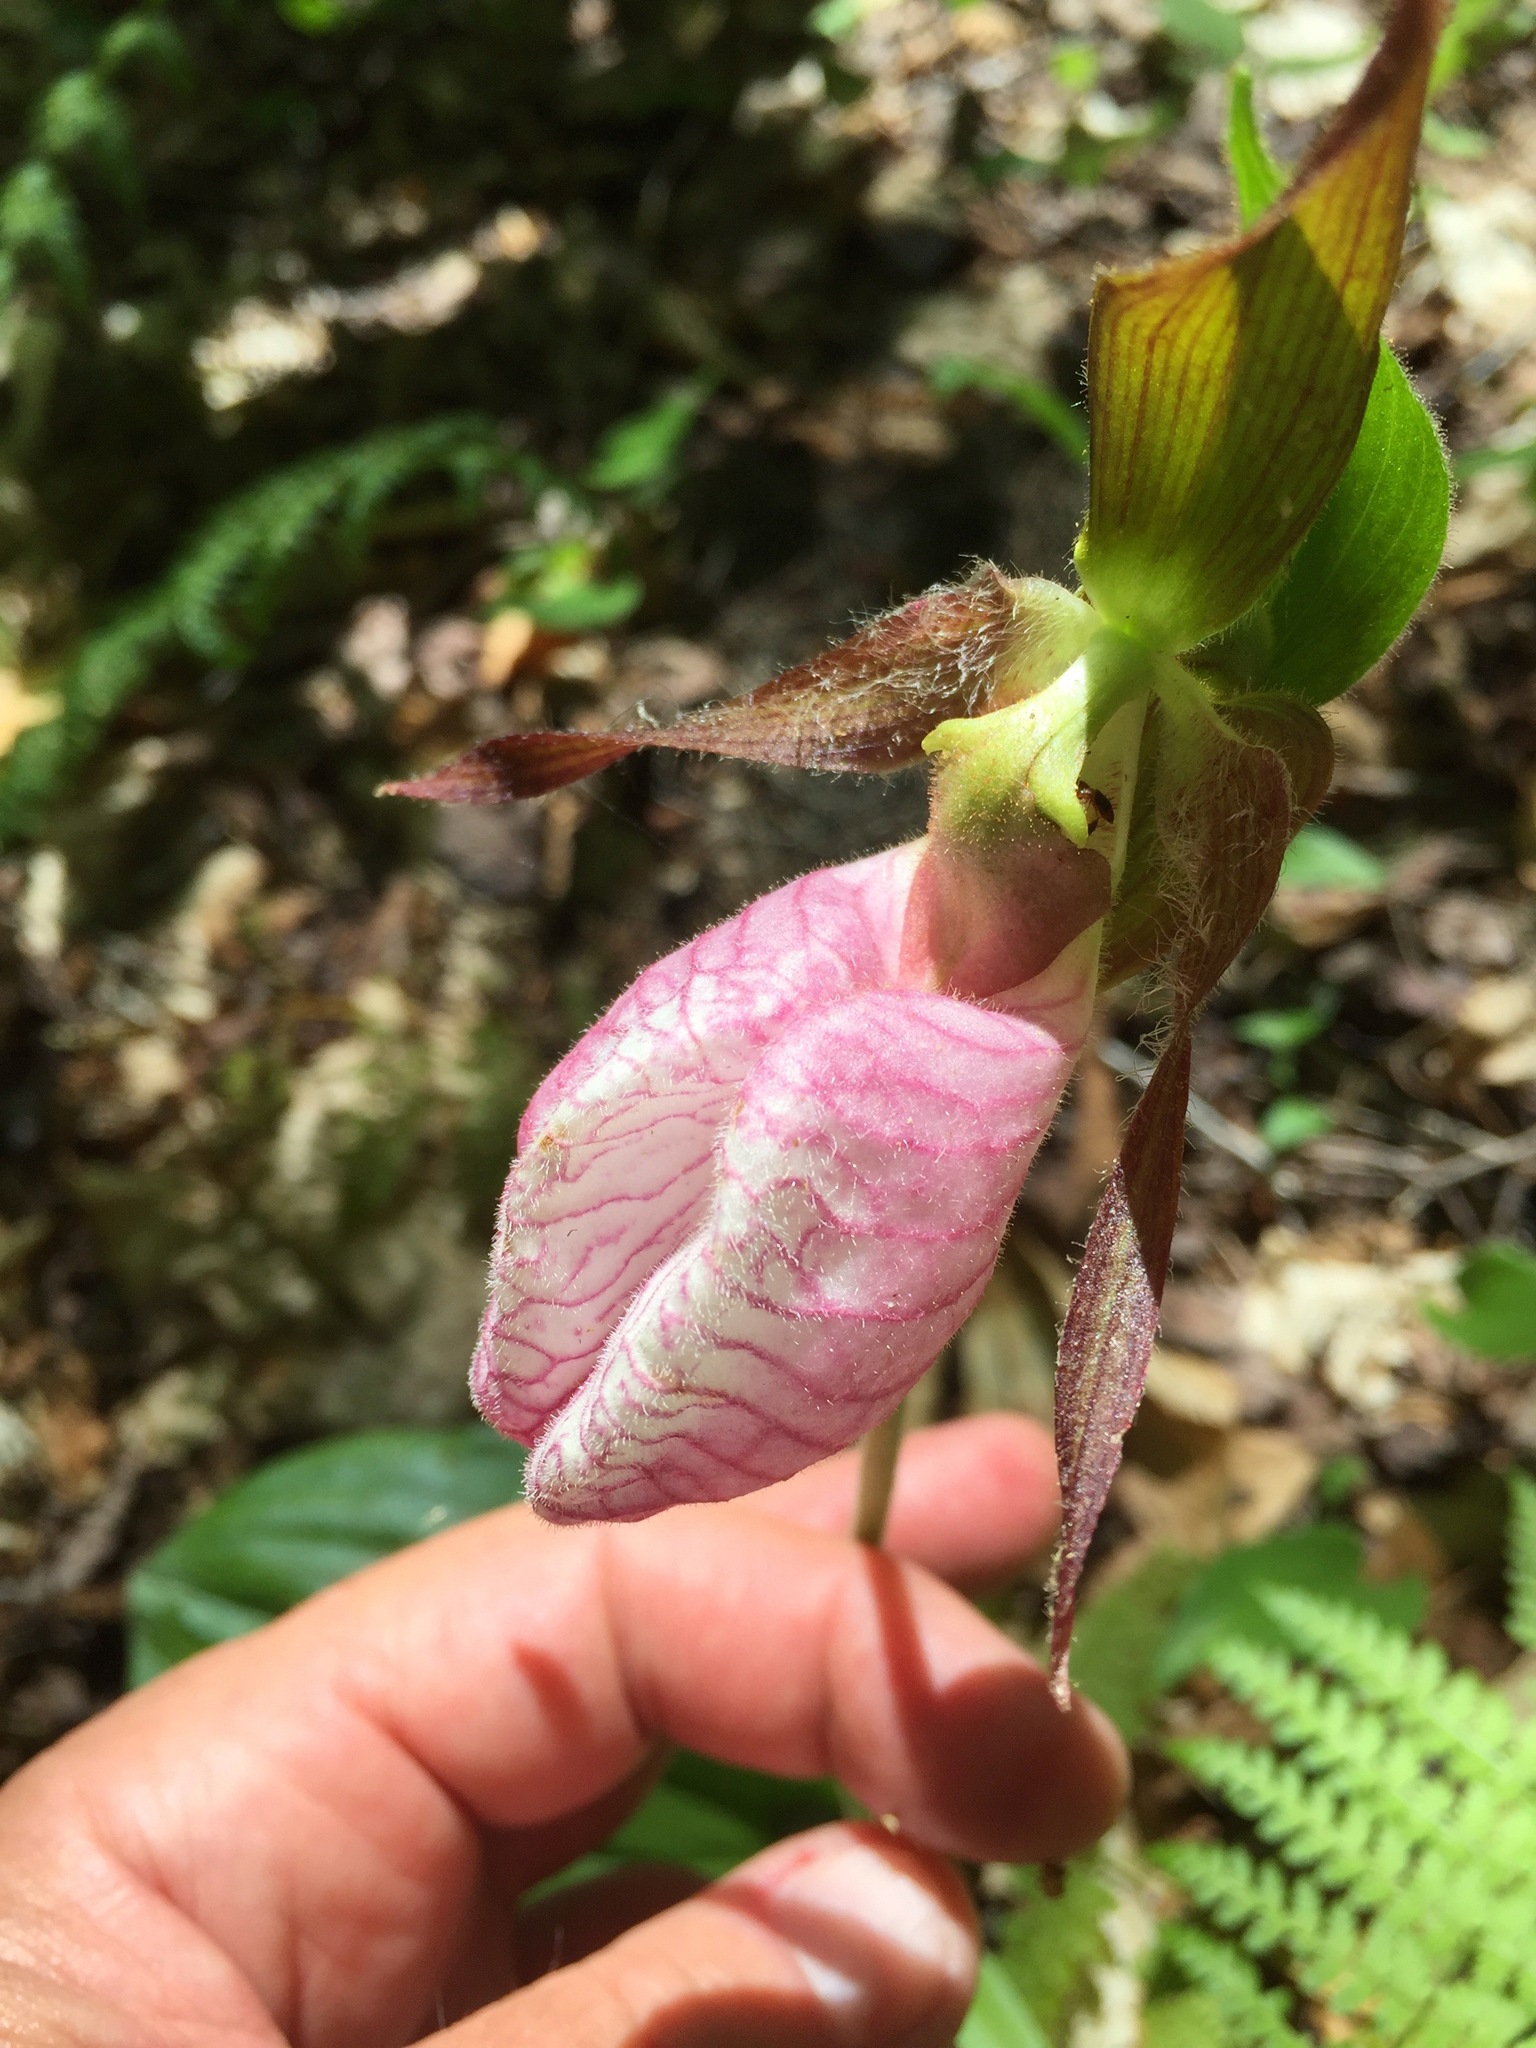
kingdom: Plantae
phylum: Tracheophyta
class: Liliopsida
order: Asparagales
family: Orchidaceae
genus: Cypripedium
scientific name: Cypripedium acaule
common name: Pink lady's-slipper
